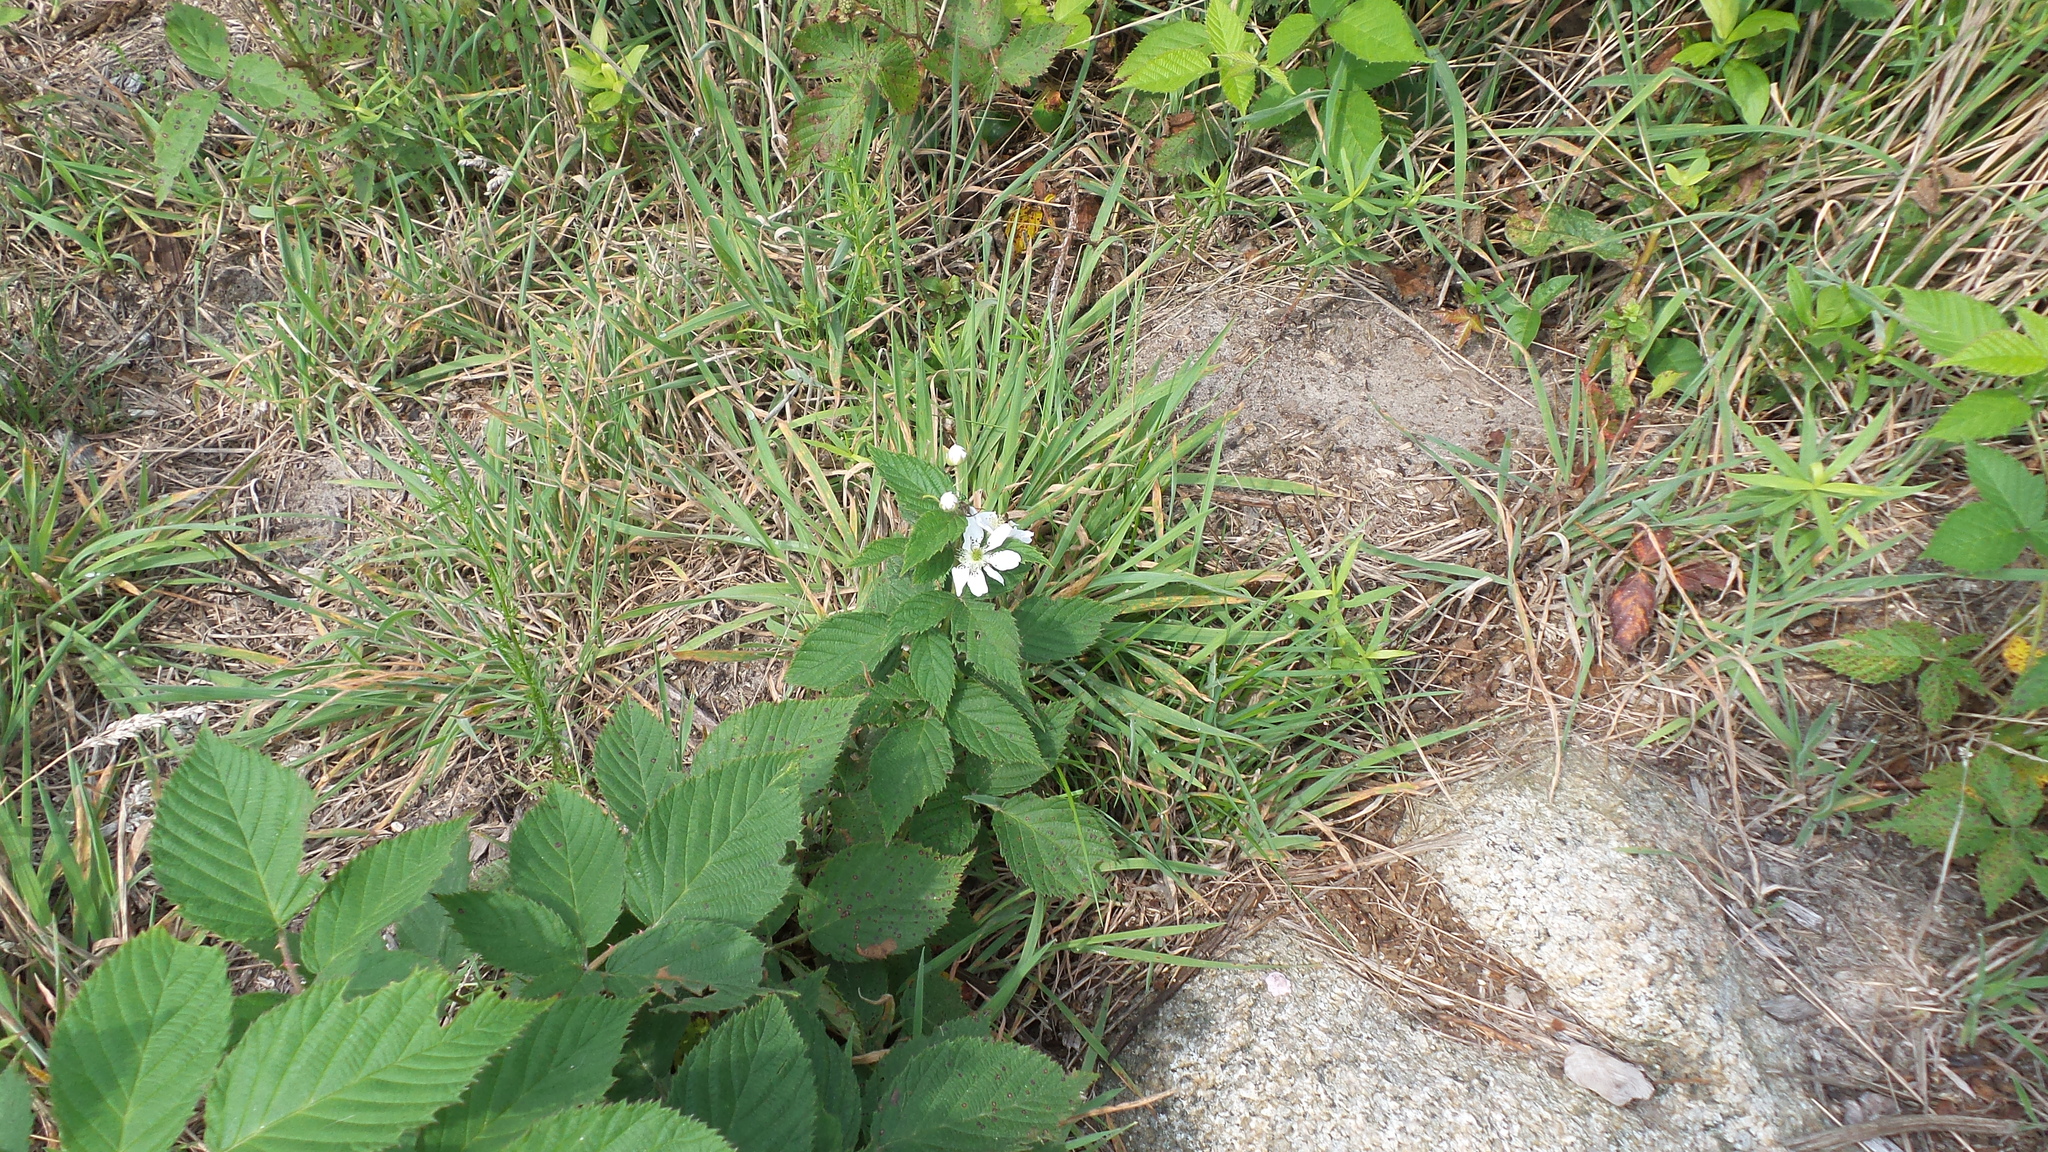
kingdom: Plantae
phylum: Tracheophyta
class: Magnoliopsida
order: Rosales
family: Rosaceae
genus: Rubus
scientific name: Rubus
